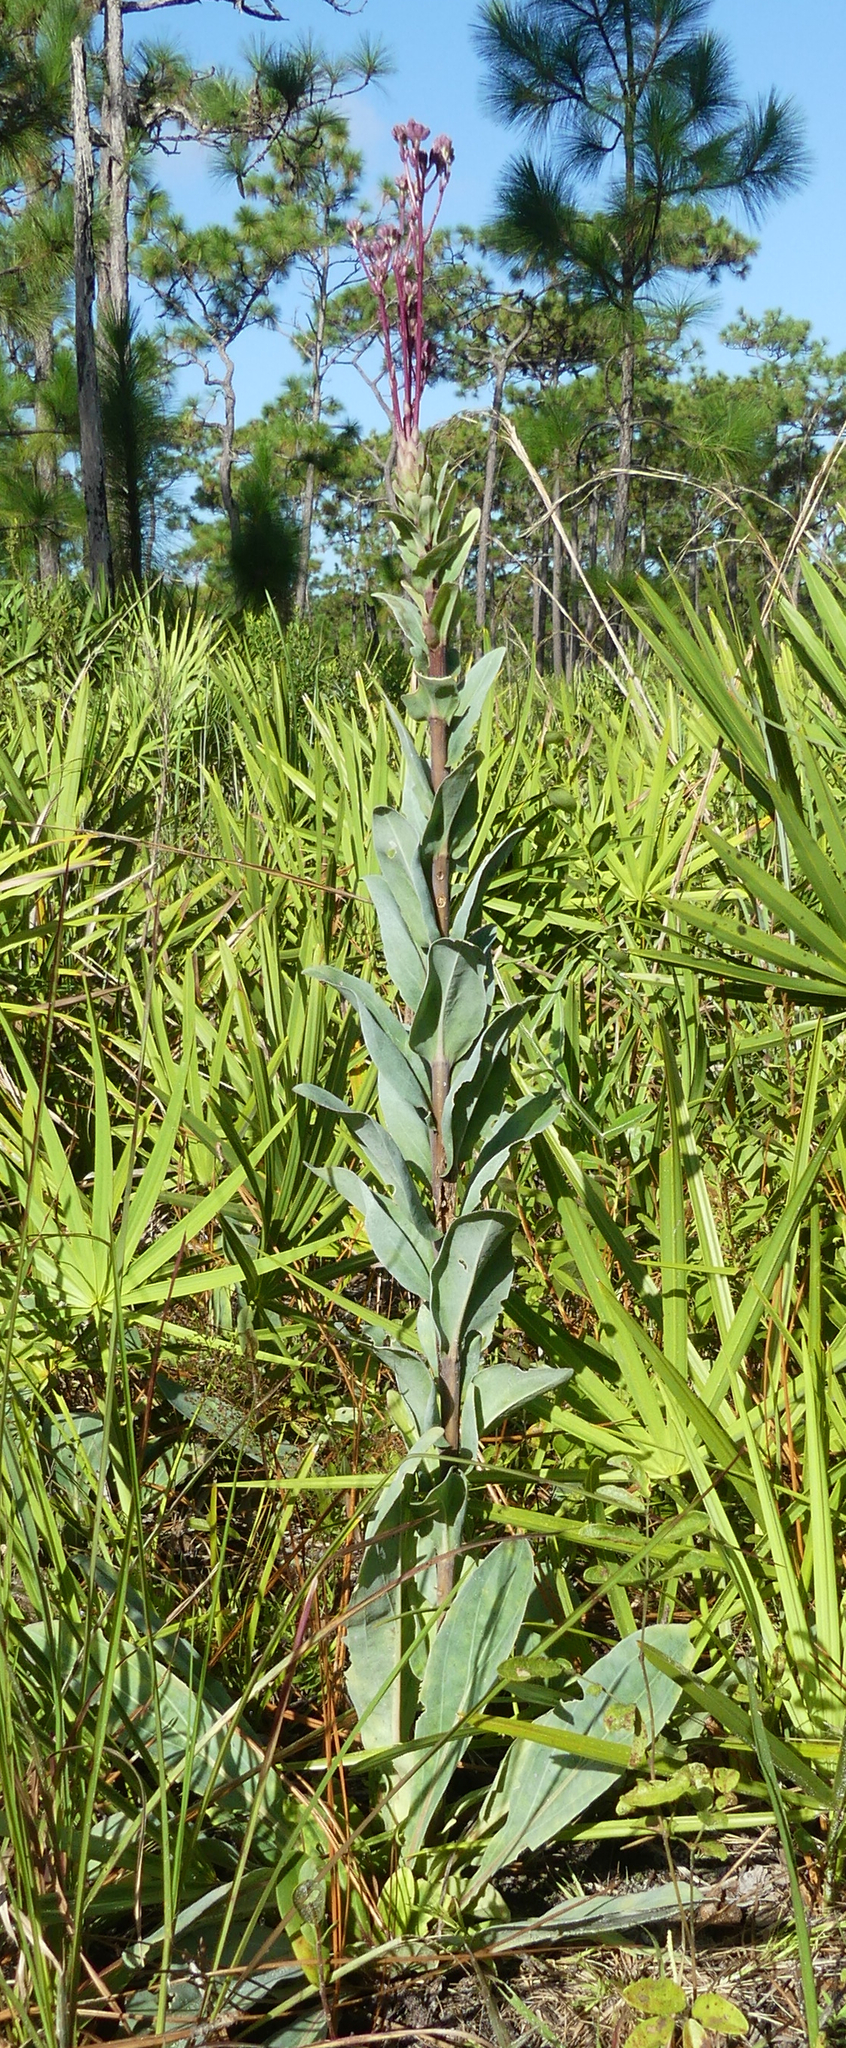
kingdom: Plantae
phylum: Tracheophyta
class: Magnoliopsida
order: Asterales
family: Asteraceae
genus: Carphephorus
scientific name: Carphephorus odoratissimus
